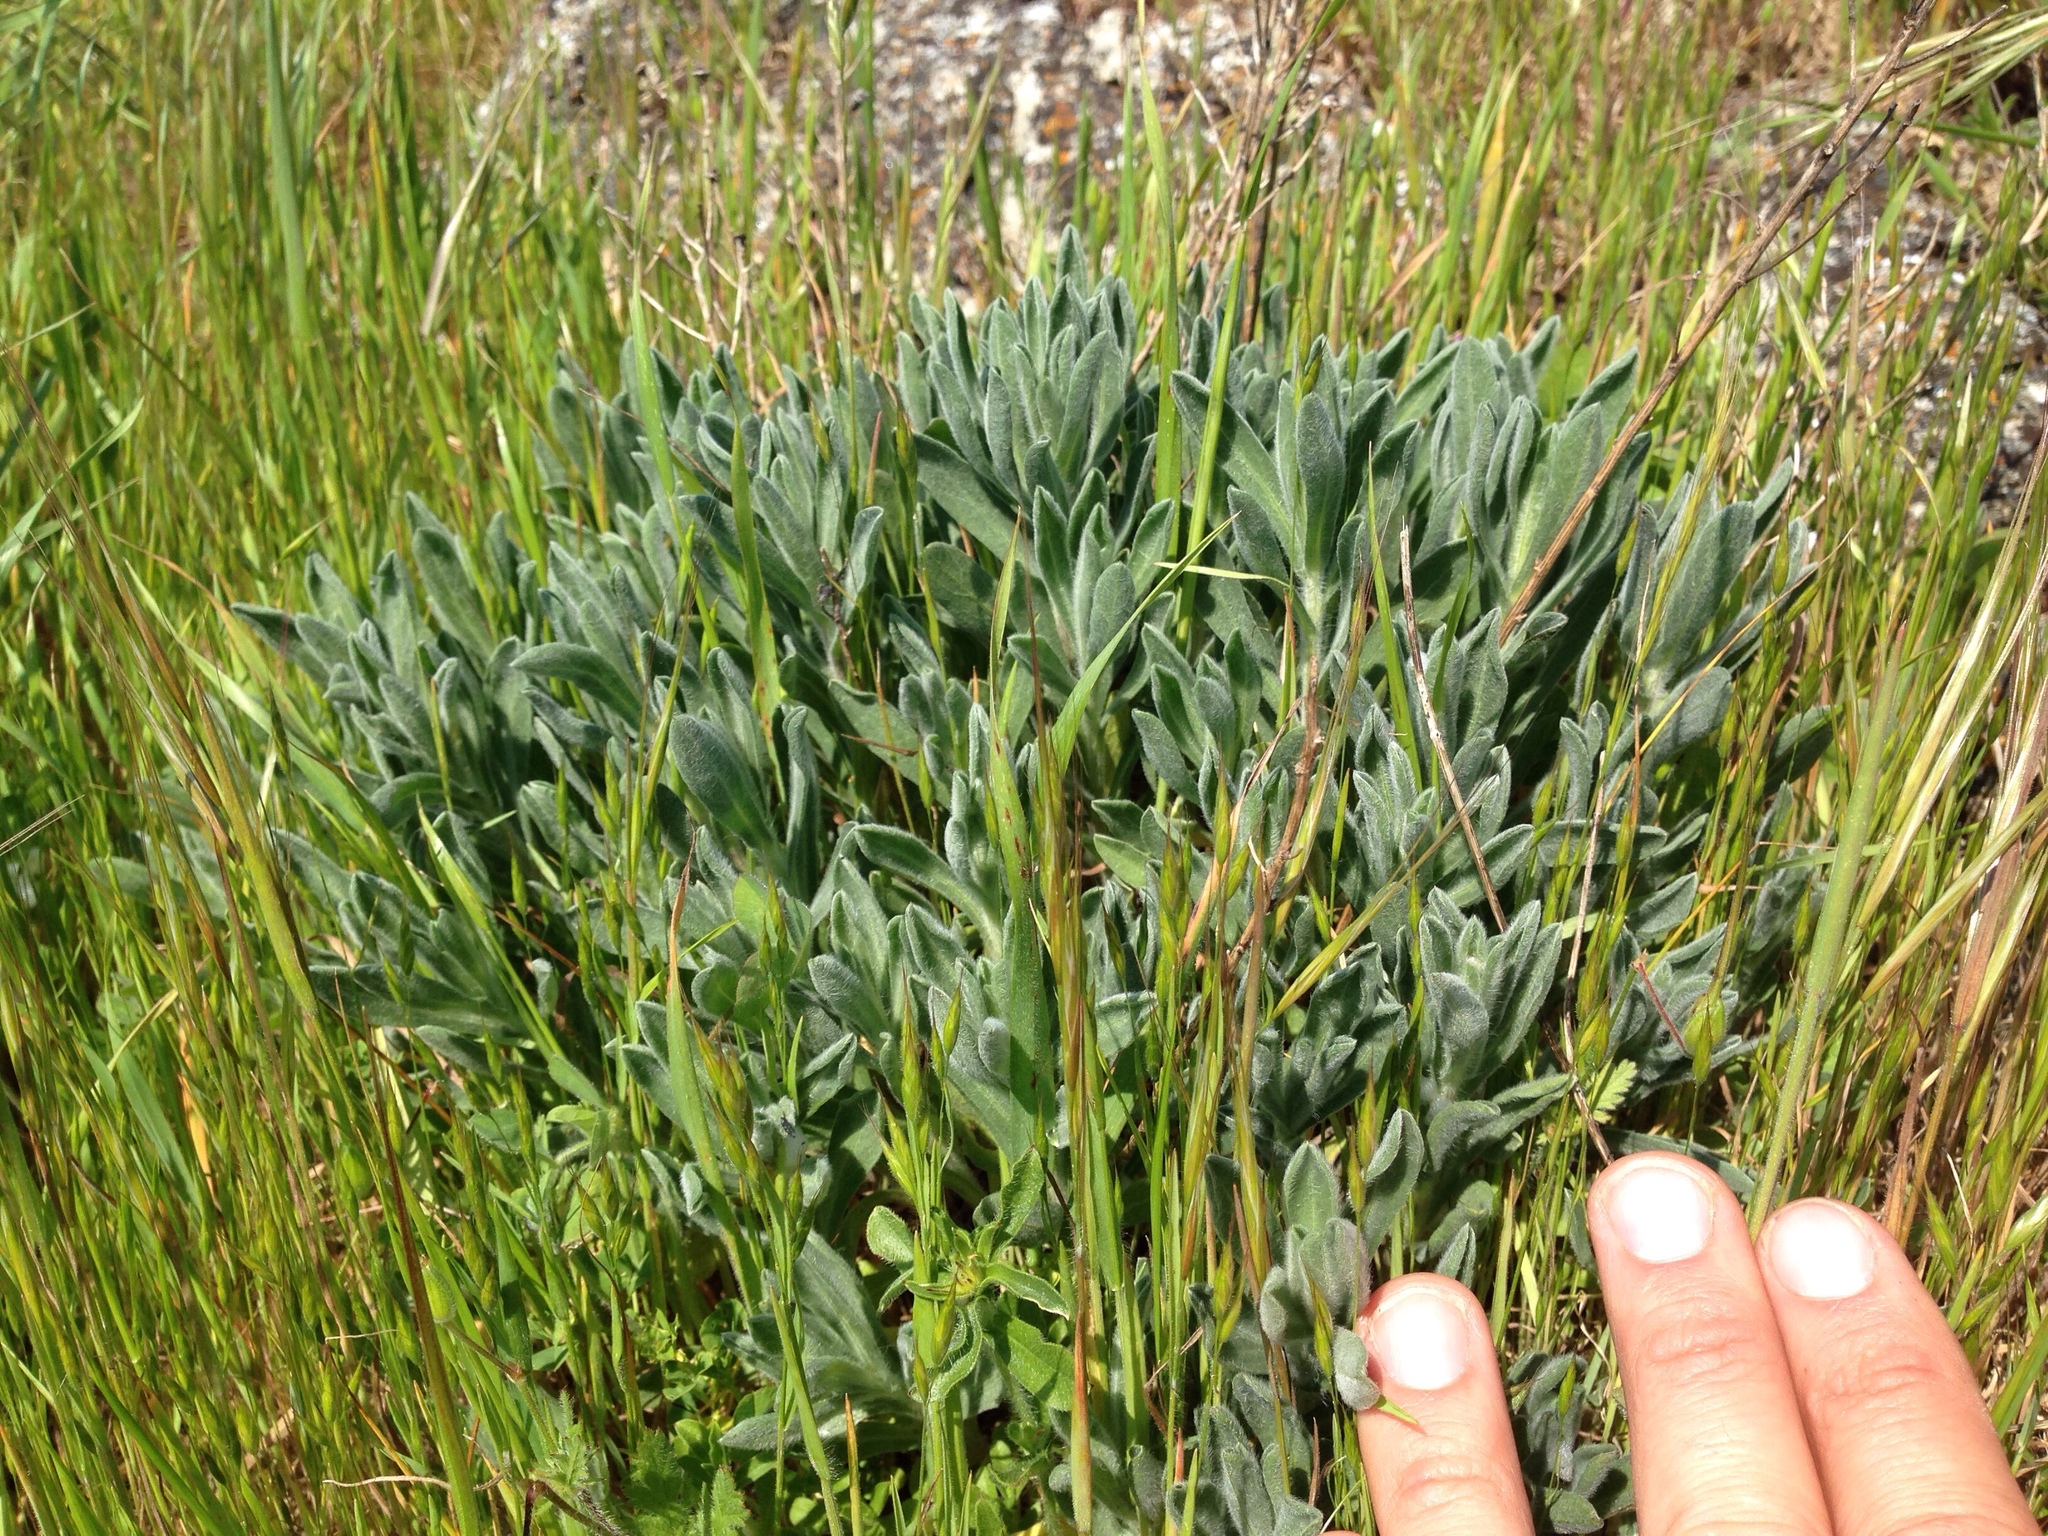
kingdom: Plantae
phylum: Tracheophyta
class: Magnoliopsida
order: Asterales
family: Asteraceae
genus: Heterotheca
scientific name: Heterotheca sessiliflora
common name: Sessile-flower golden-aster
